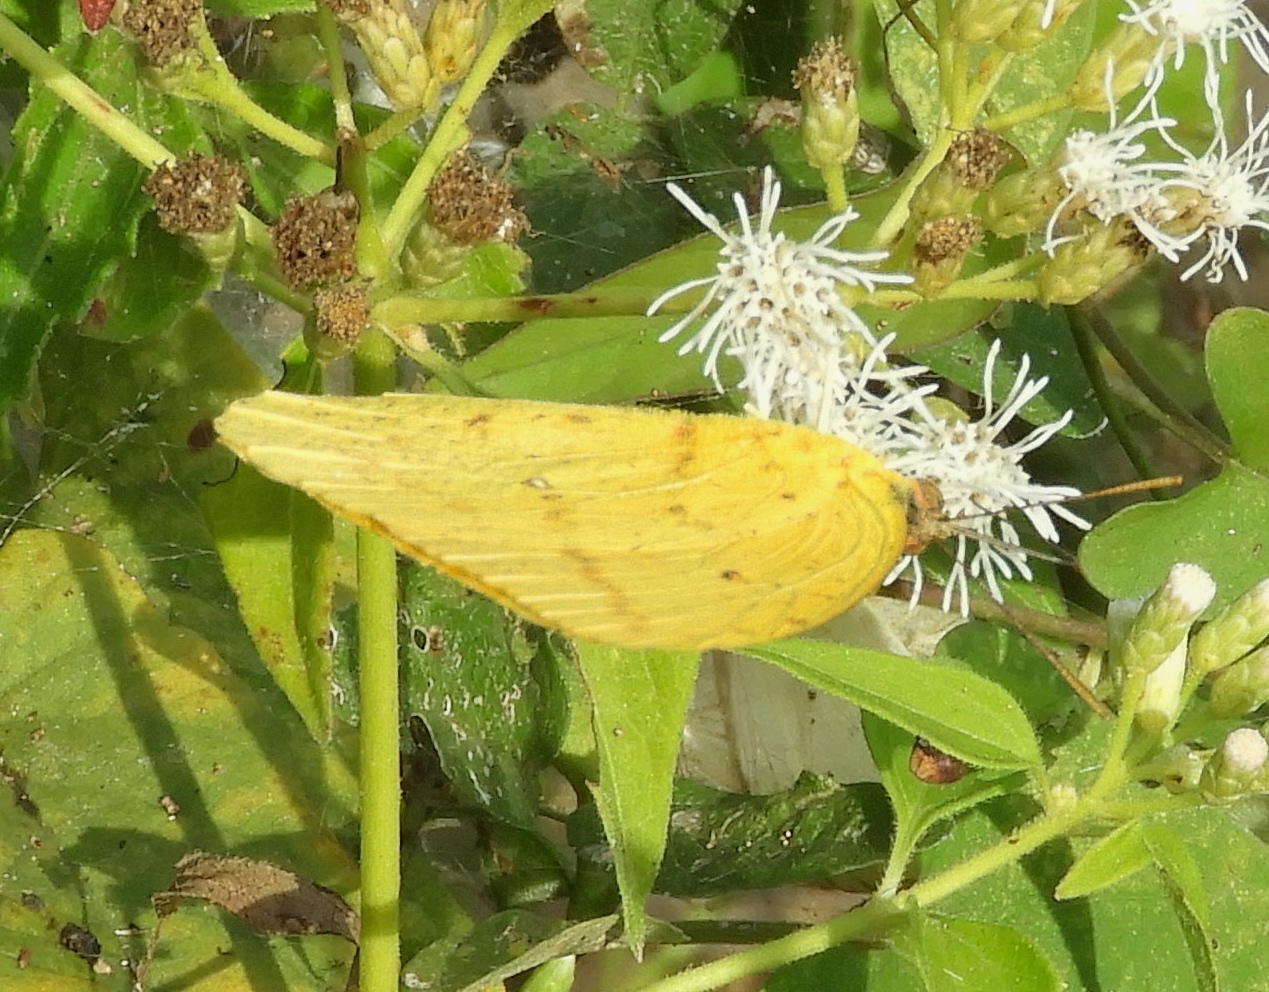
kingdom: Animalia
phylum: Arthropoda
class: Insecta
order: Lepidoptera
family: Pieridae
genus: Phoebis
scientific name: Phoebis agarithe
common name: Large orange sulphur
